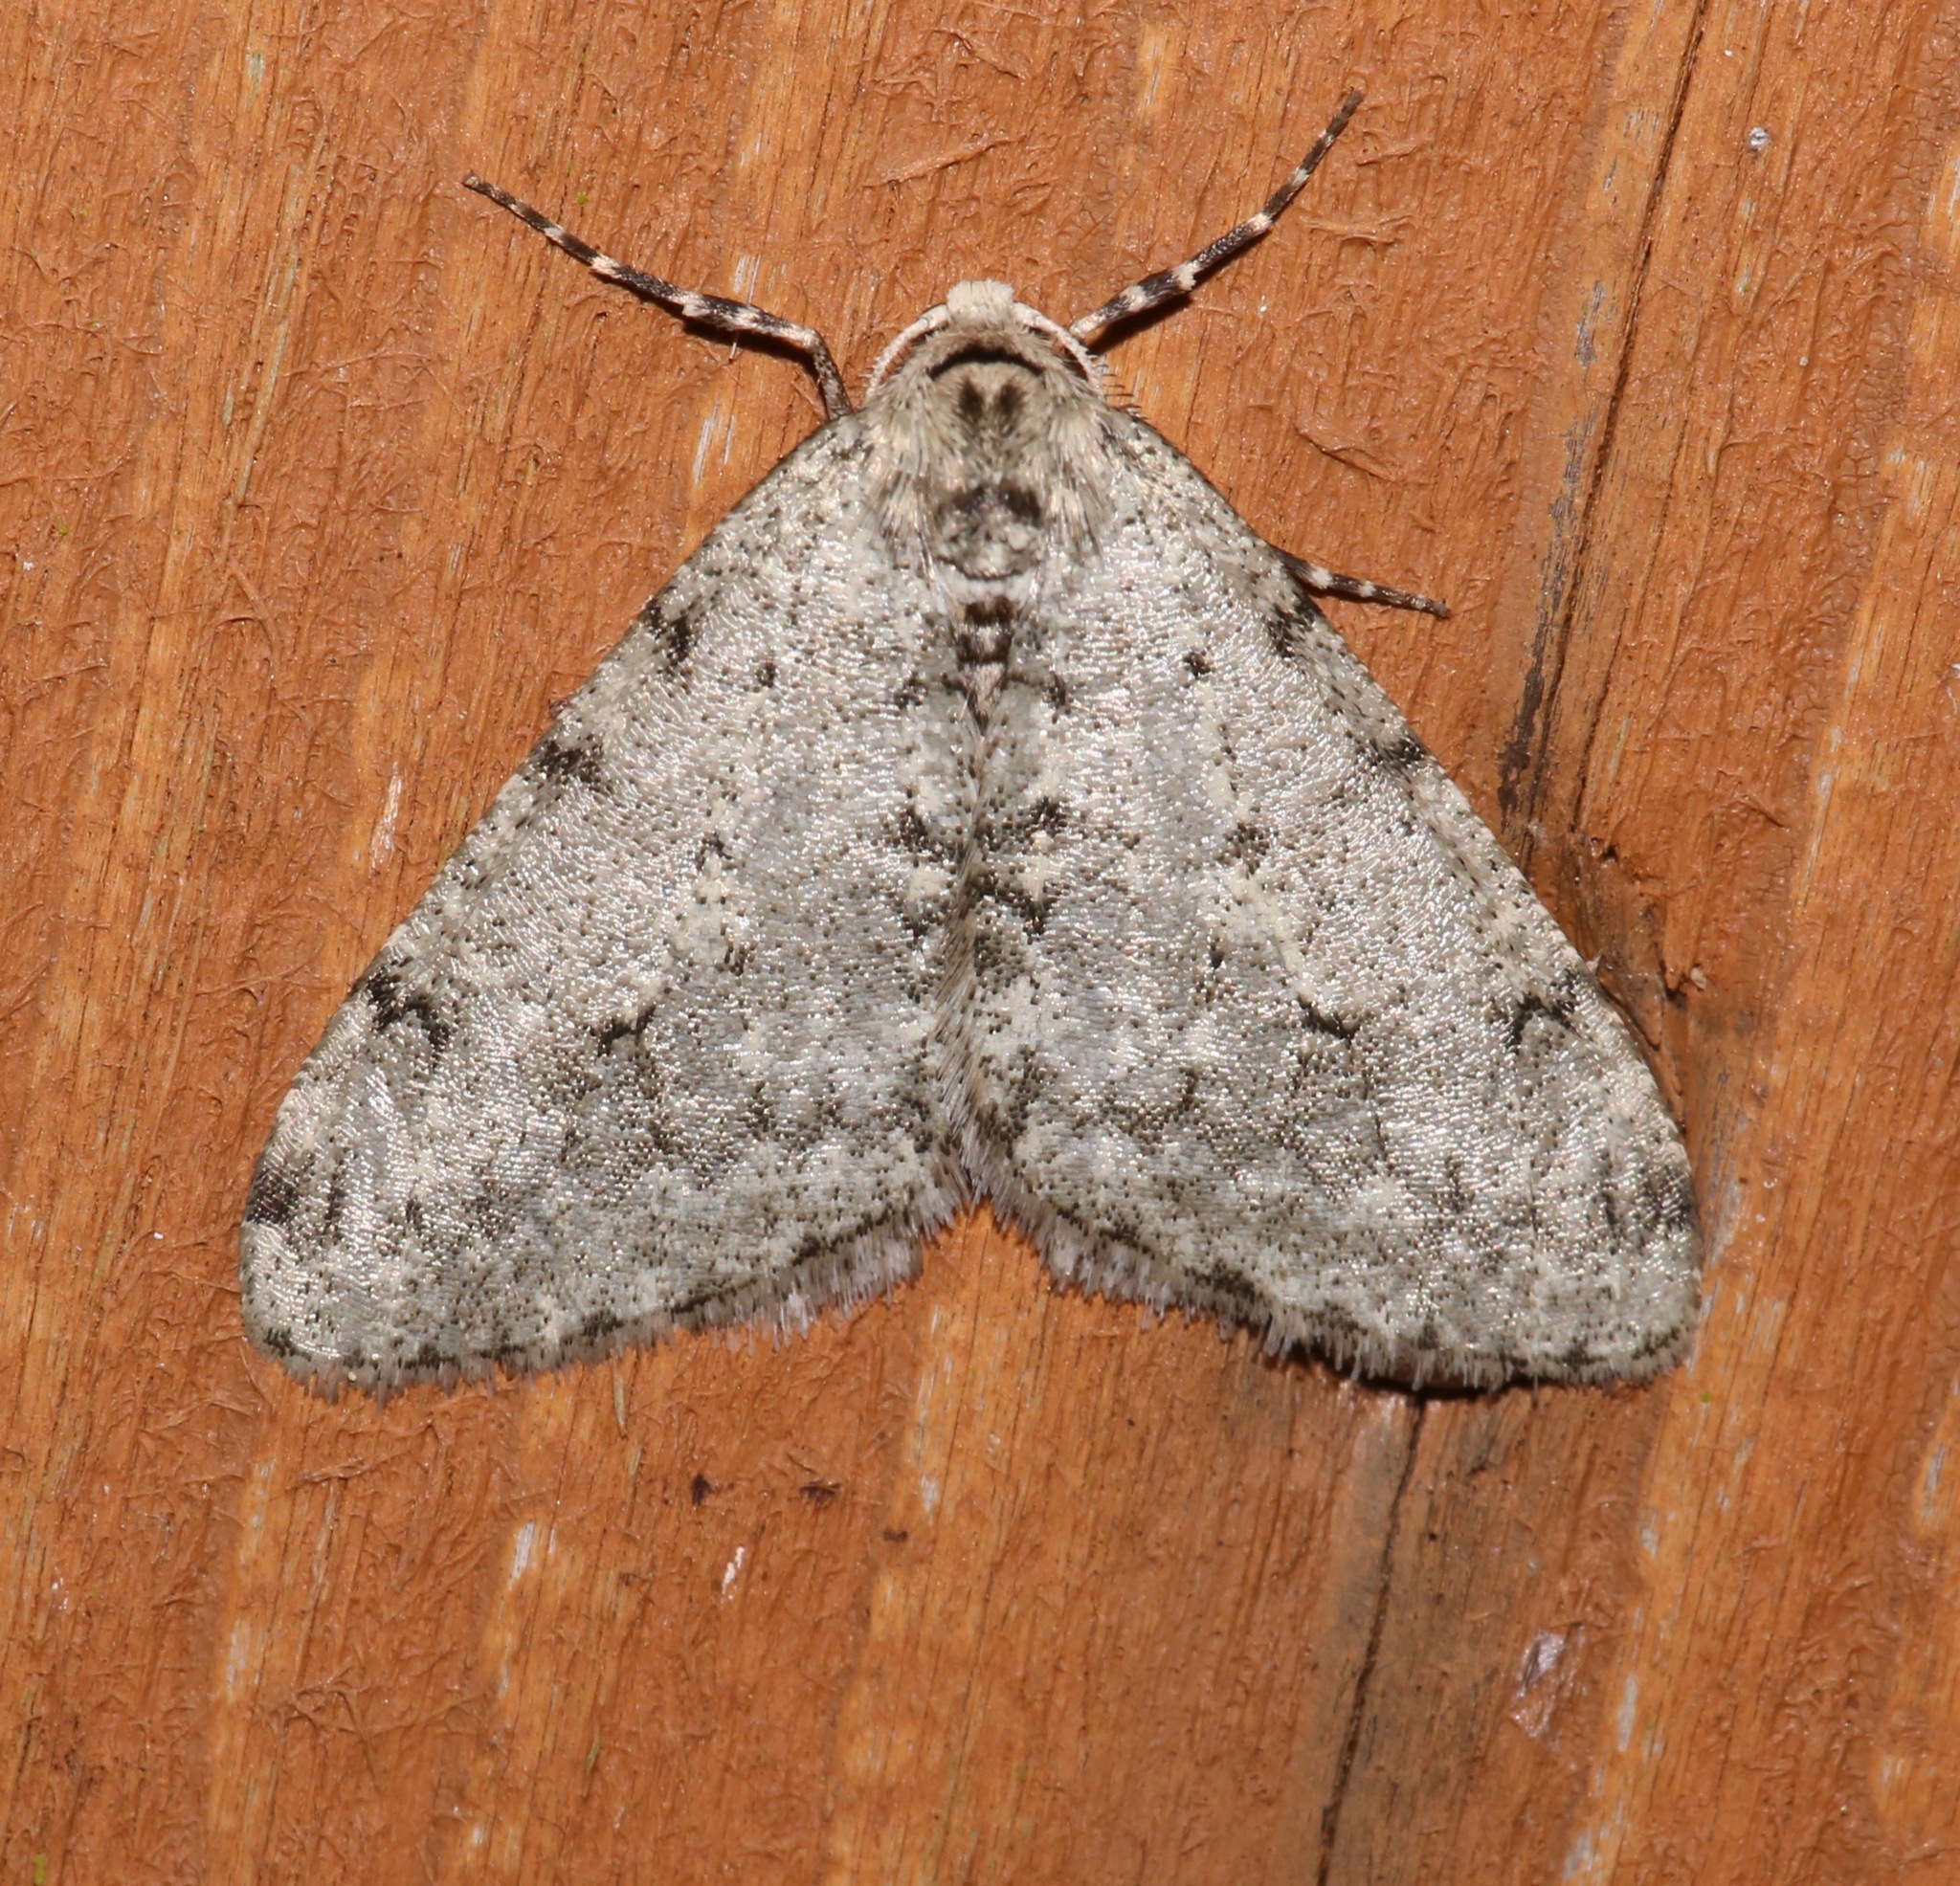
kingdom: Animalia
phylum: Arthropoda
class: Insecta
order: Lepidoptera
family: Geometridae
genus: Phigalia
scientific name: Phigalia strigataria
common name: Small phigalia
